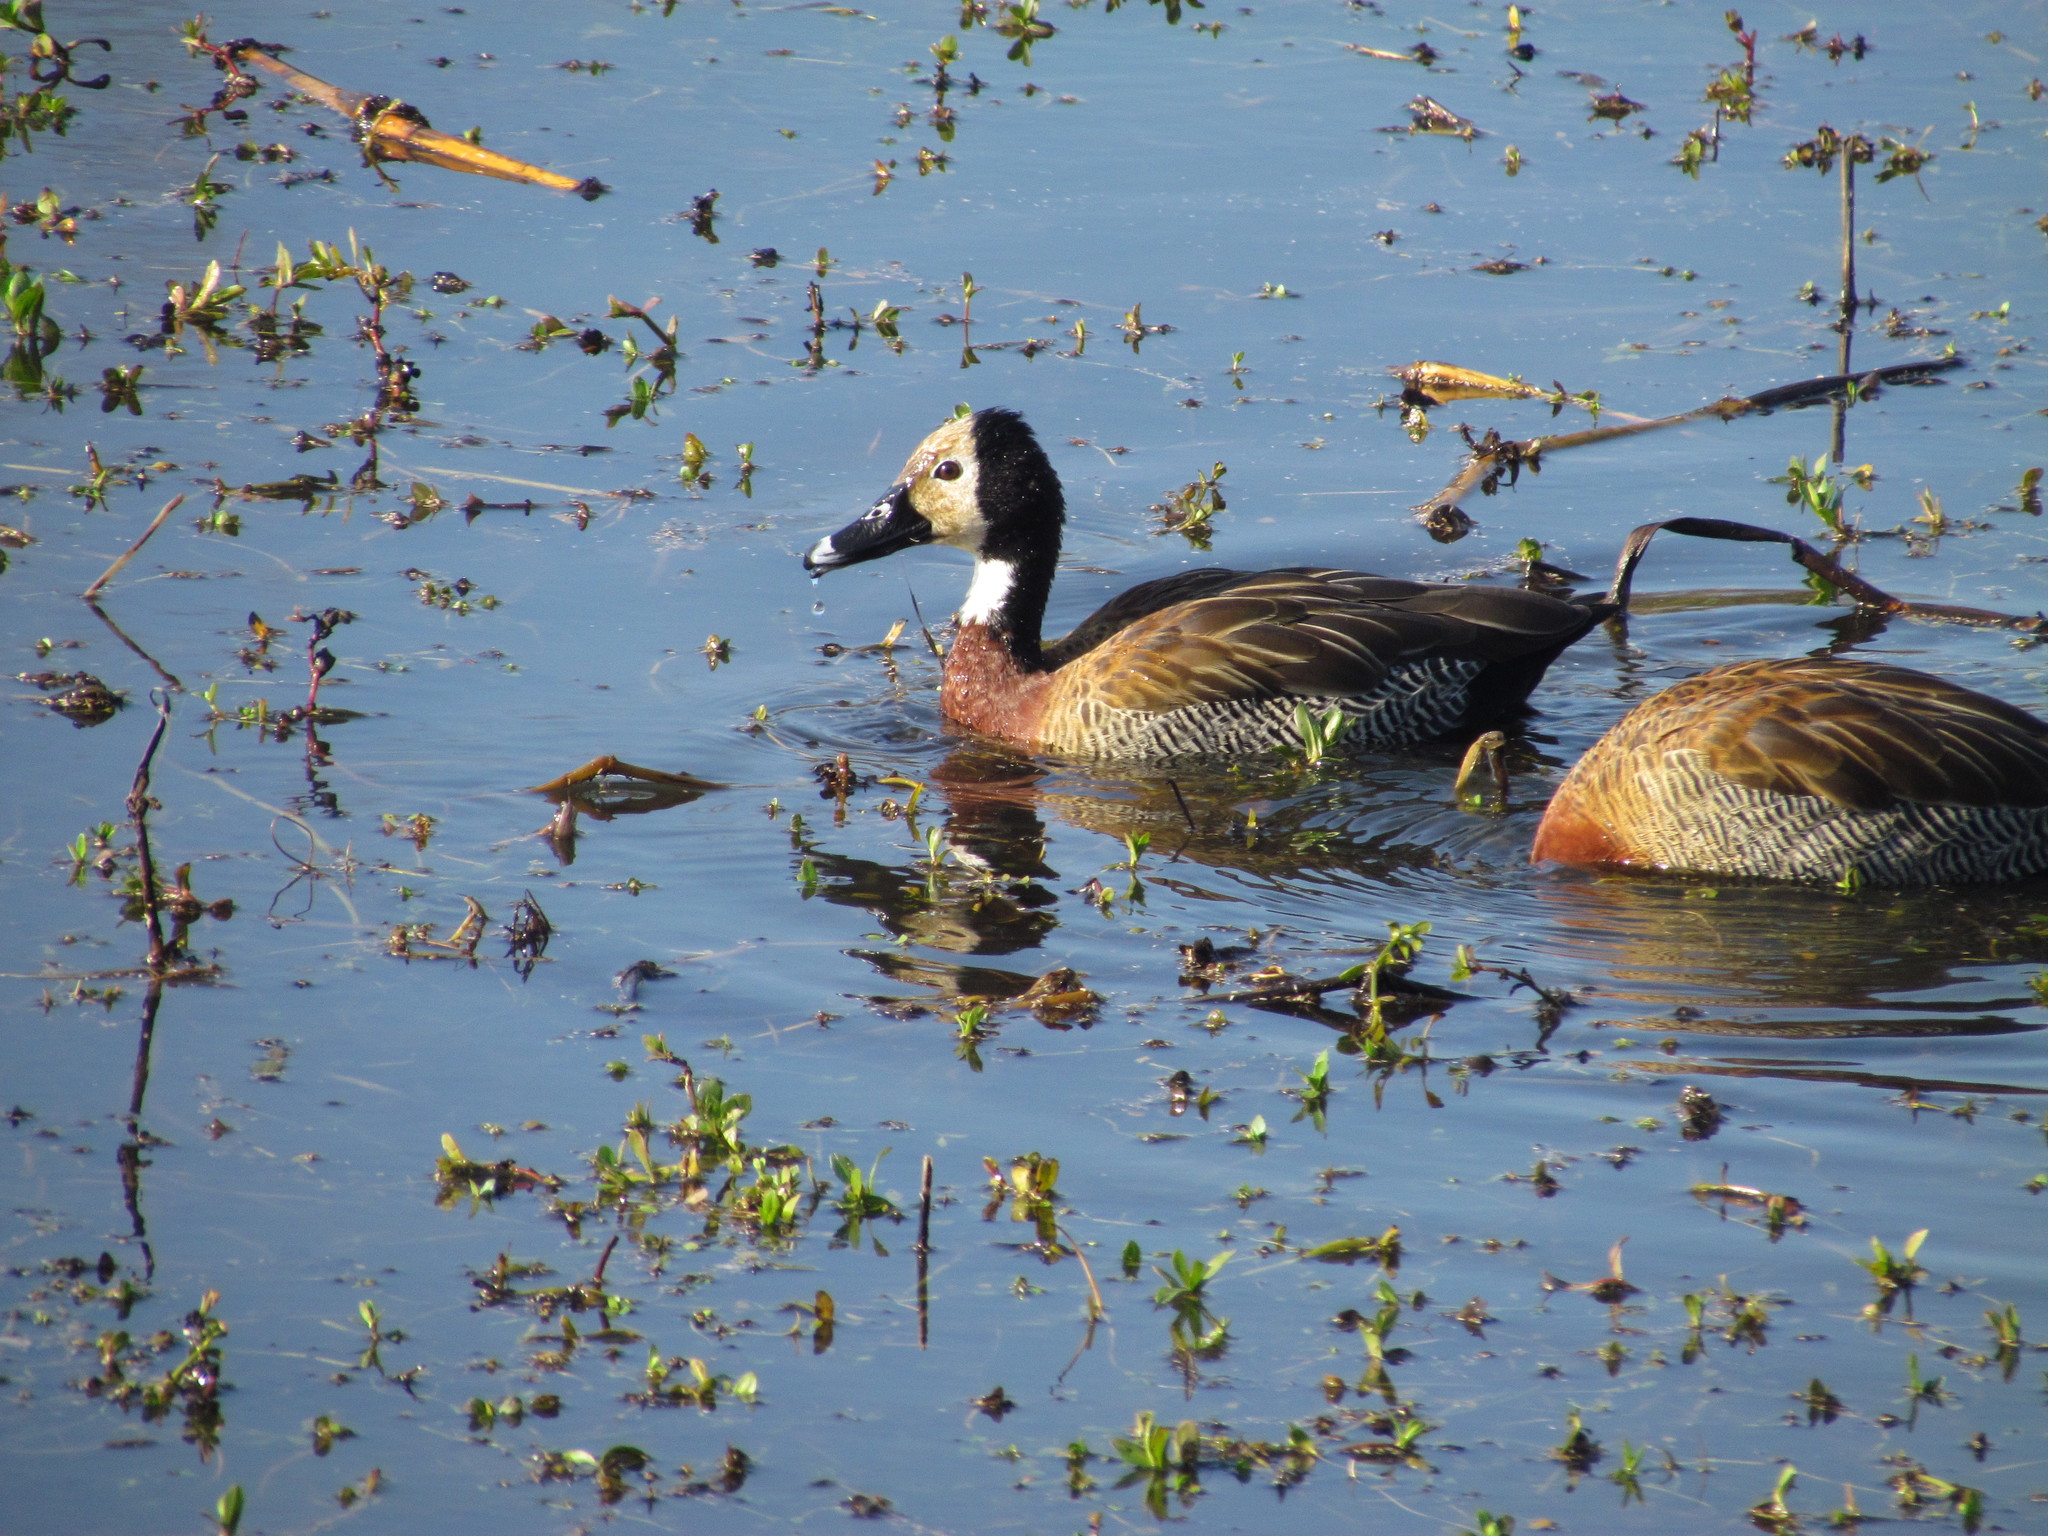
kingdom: Animalia
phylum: Chordata
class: Aves
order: Anseriformes
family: Anatidae
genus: Dendrocygna
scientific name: Dendrocygna viduata
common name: White-faced whistling duck
